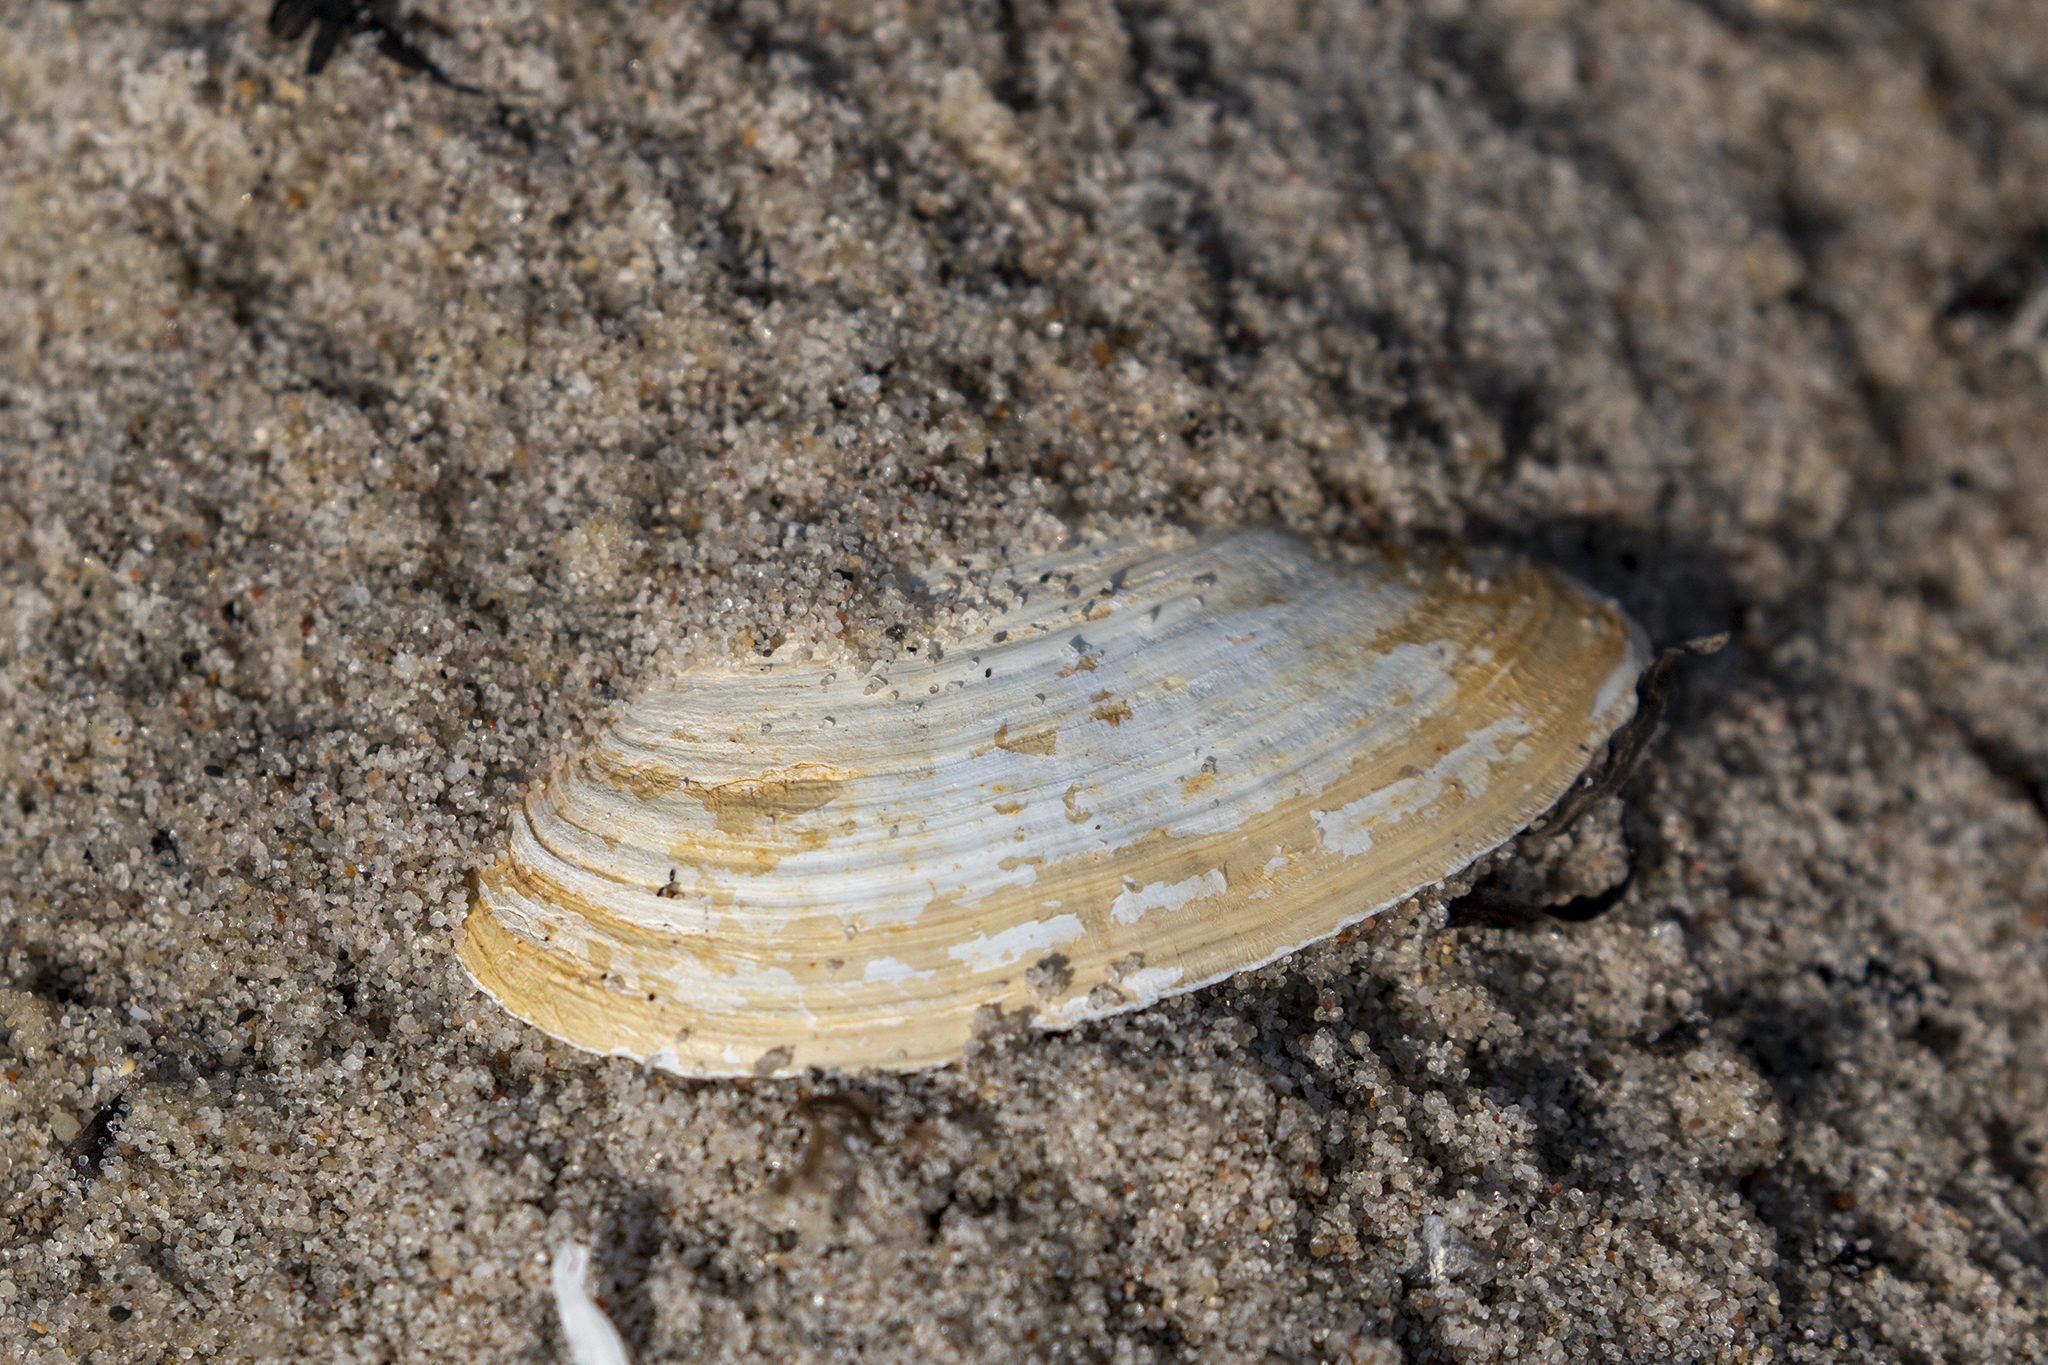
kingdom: Animalia
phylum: Mollusca
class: Bivalvia
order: Myida
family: Myidae
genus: Mya
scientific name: Mya arenaria
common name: Soft-shelled clam
